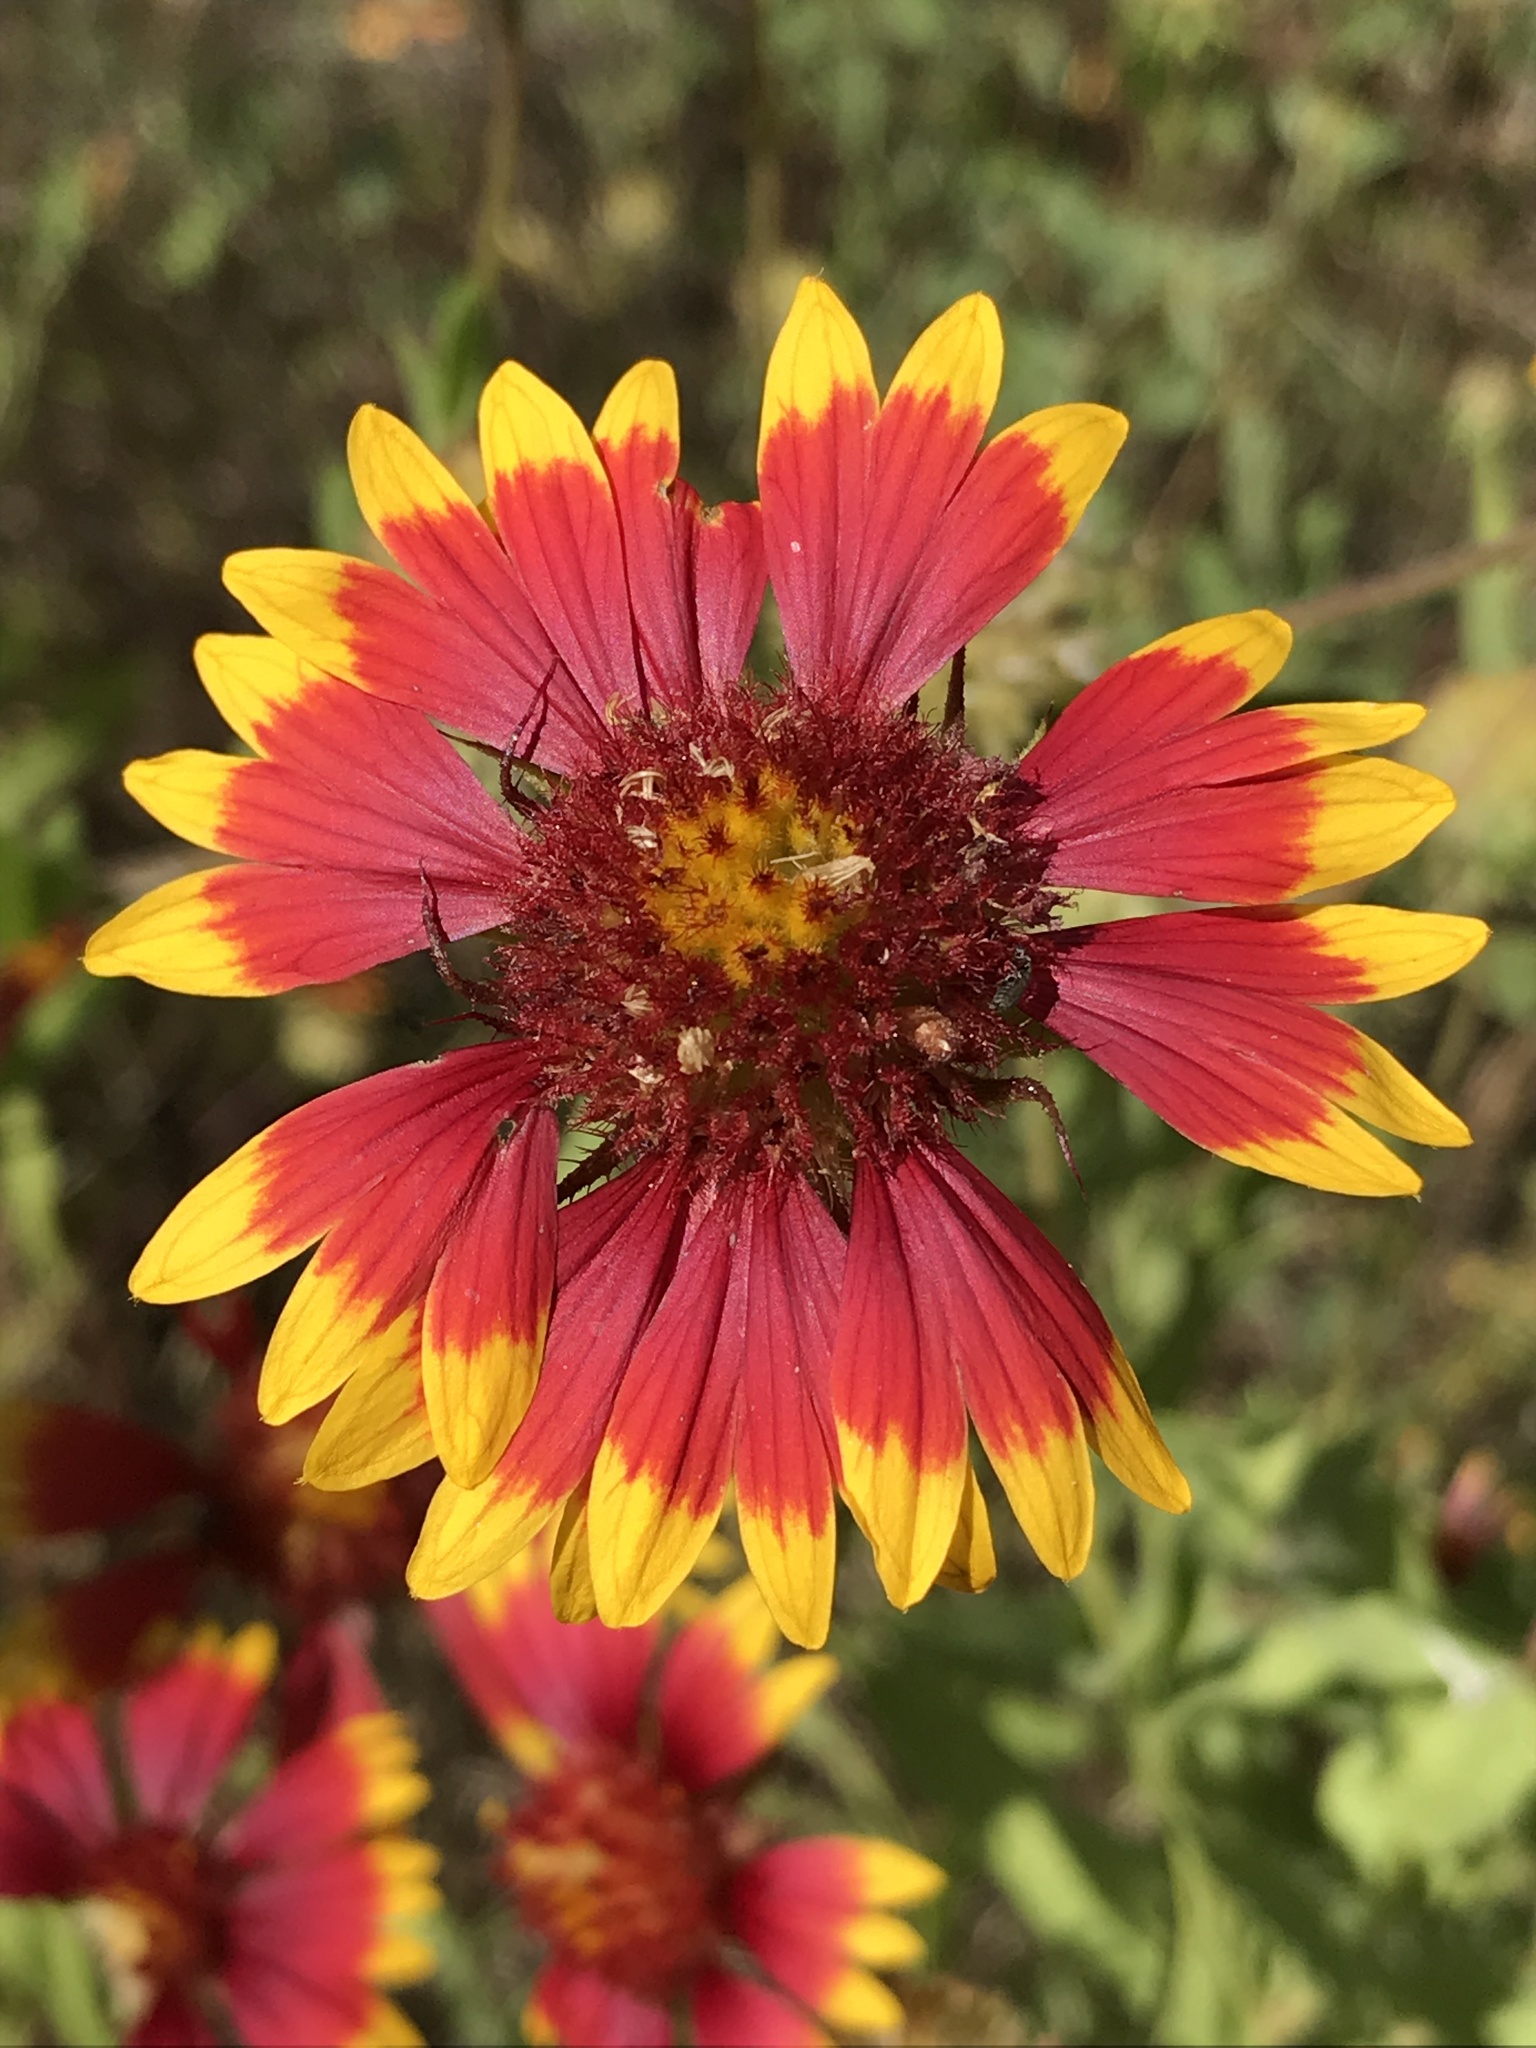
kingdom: Plantae
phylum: Tracheophyta
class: Magnoliopsida
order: Asterales
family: Asteraceae
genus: Gaillardia
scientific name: Gaillardia pulchella
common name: Firewheel
